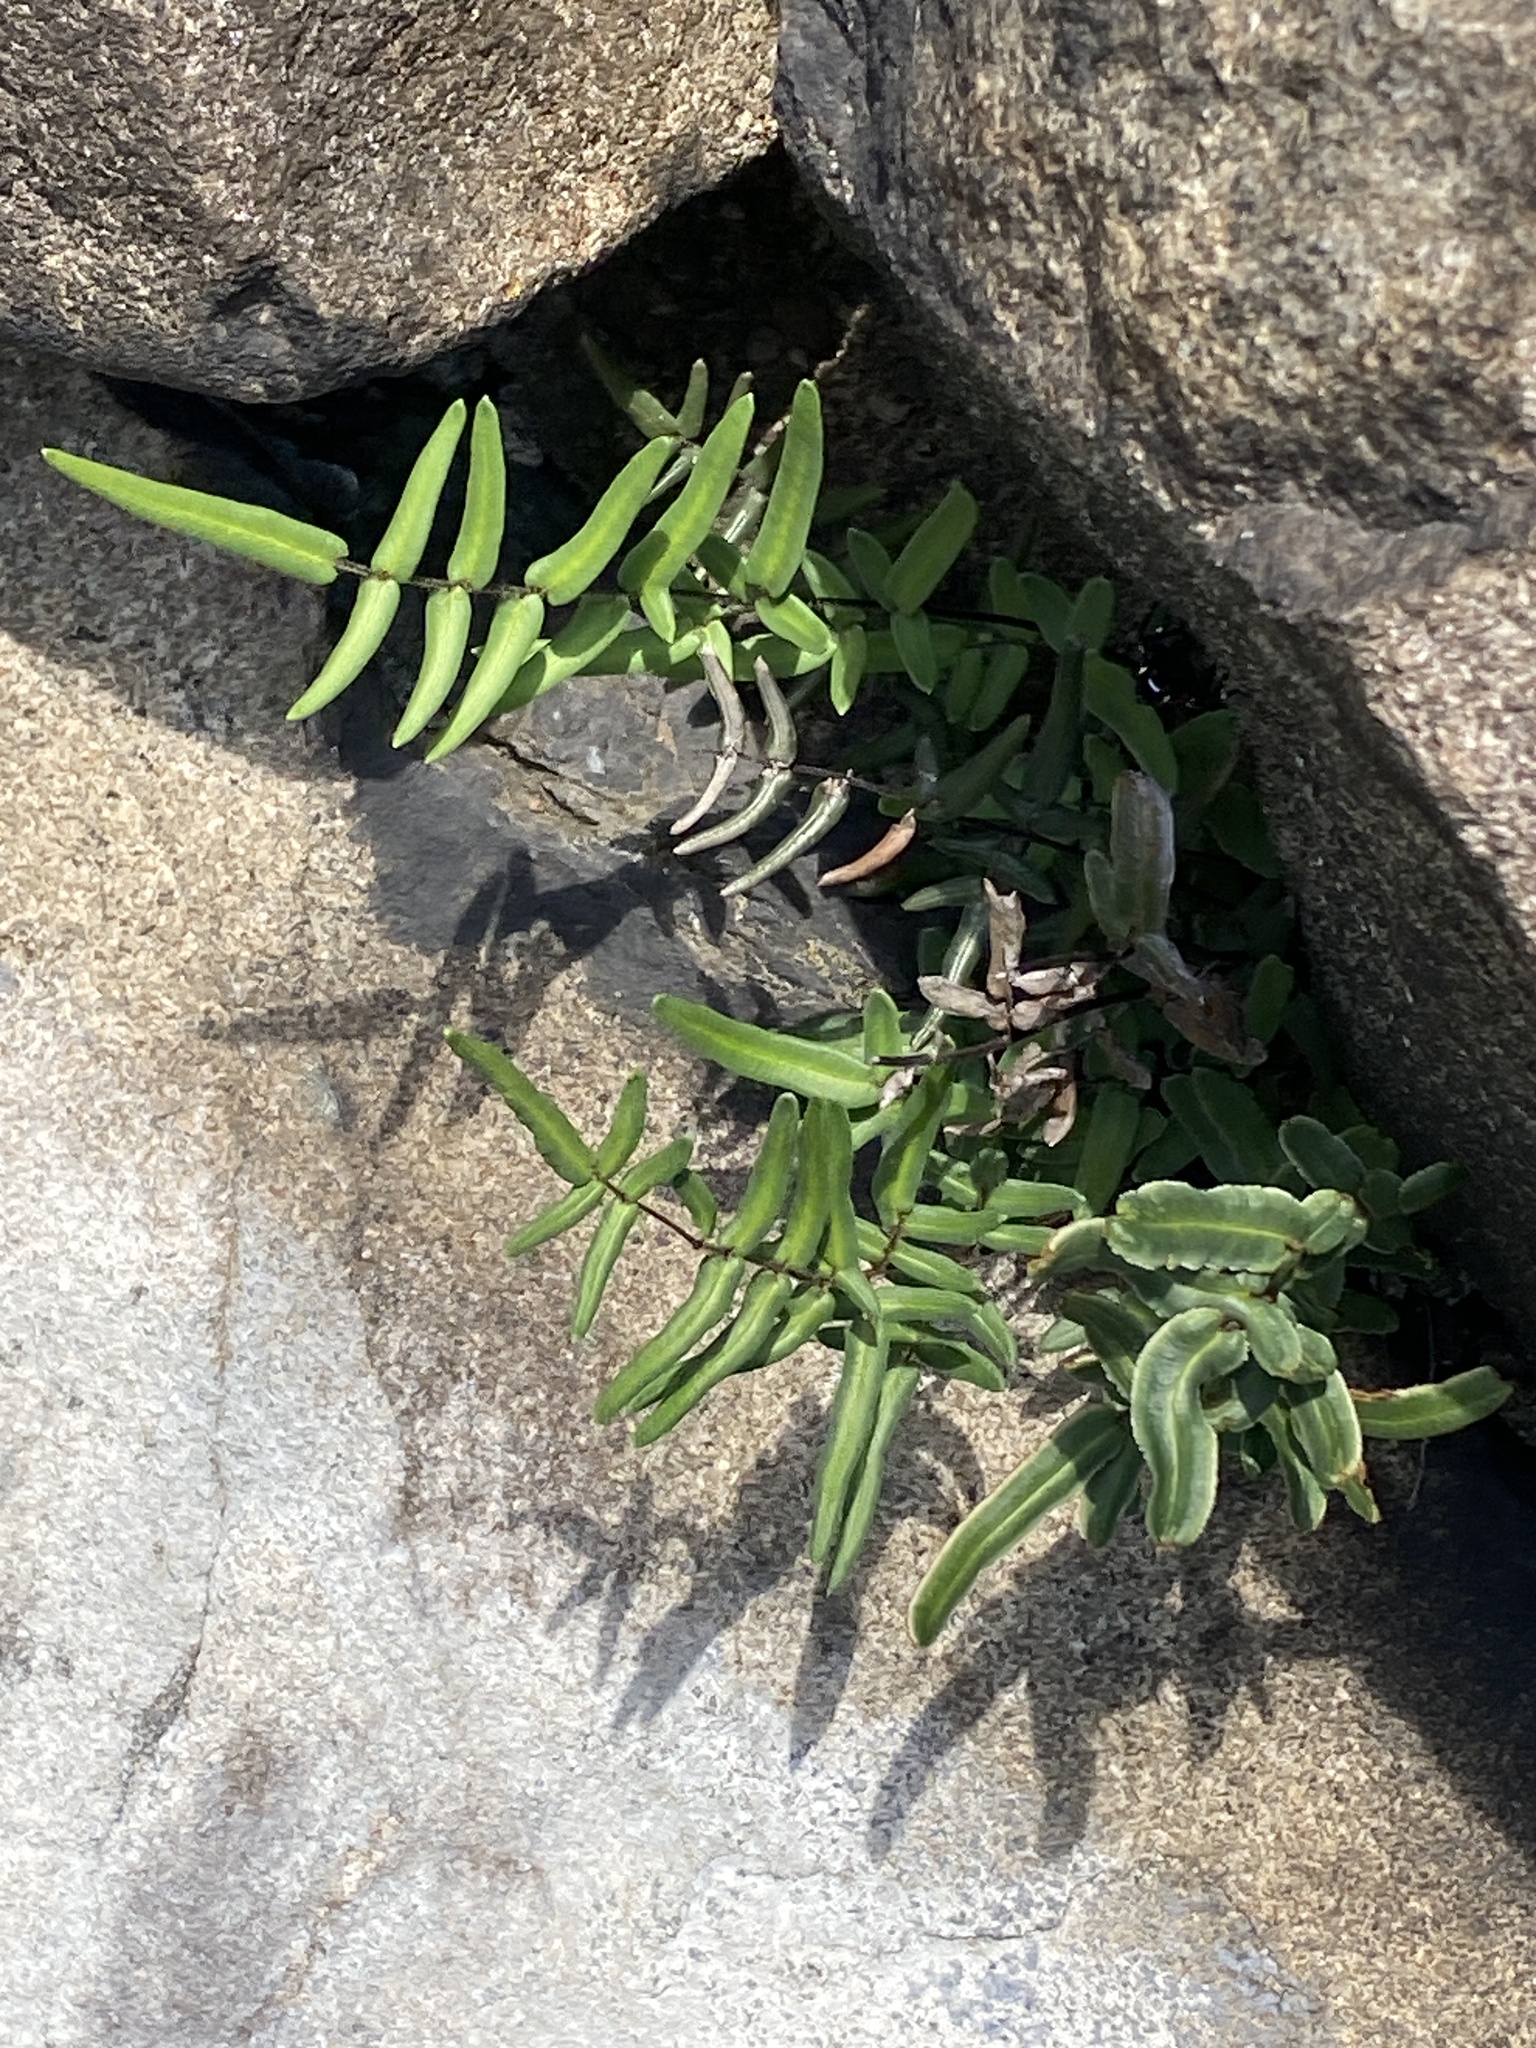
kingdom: Plantae
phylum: Tracheophyta
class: Polypodiopsida
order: Polypodiales
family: Pteridaceae
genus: Pellaea
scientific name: Pellaea atropurpurea
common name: Hairy cliffbrake
